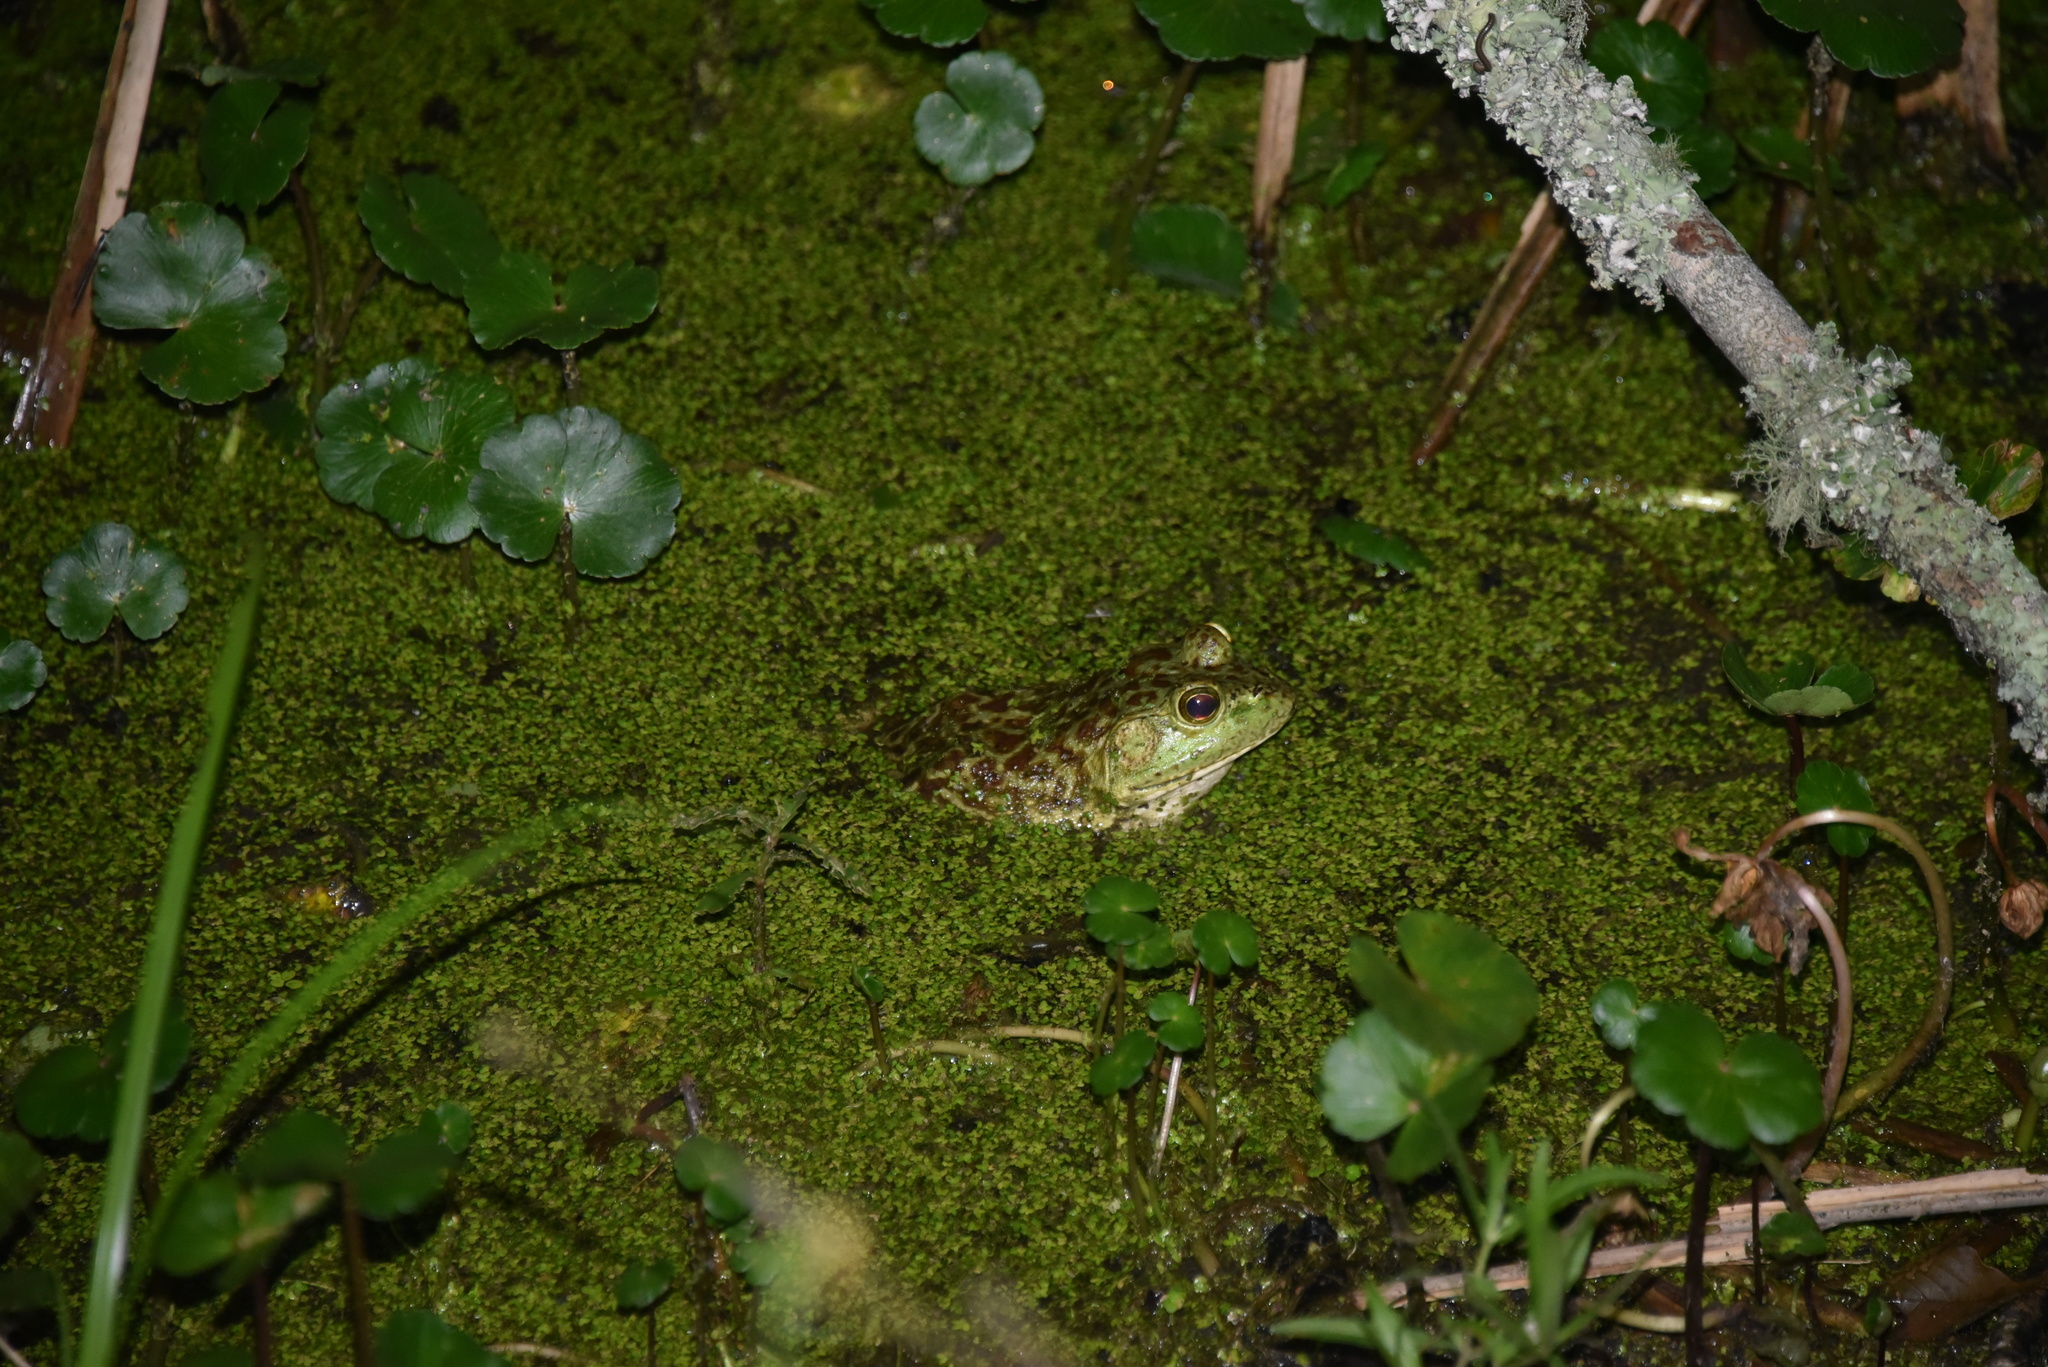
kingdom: Animalia
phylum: Chordata
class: Amphibia
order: Anura
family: Ranidae
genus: Lithobates
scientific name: Lithobates catesbeianus
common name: American bullfrog
